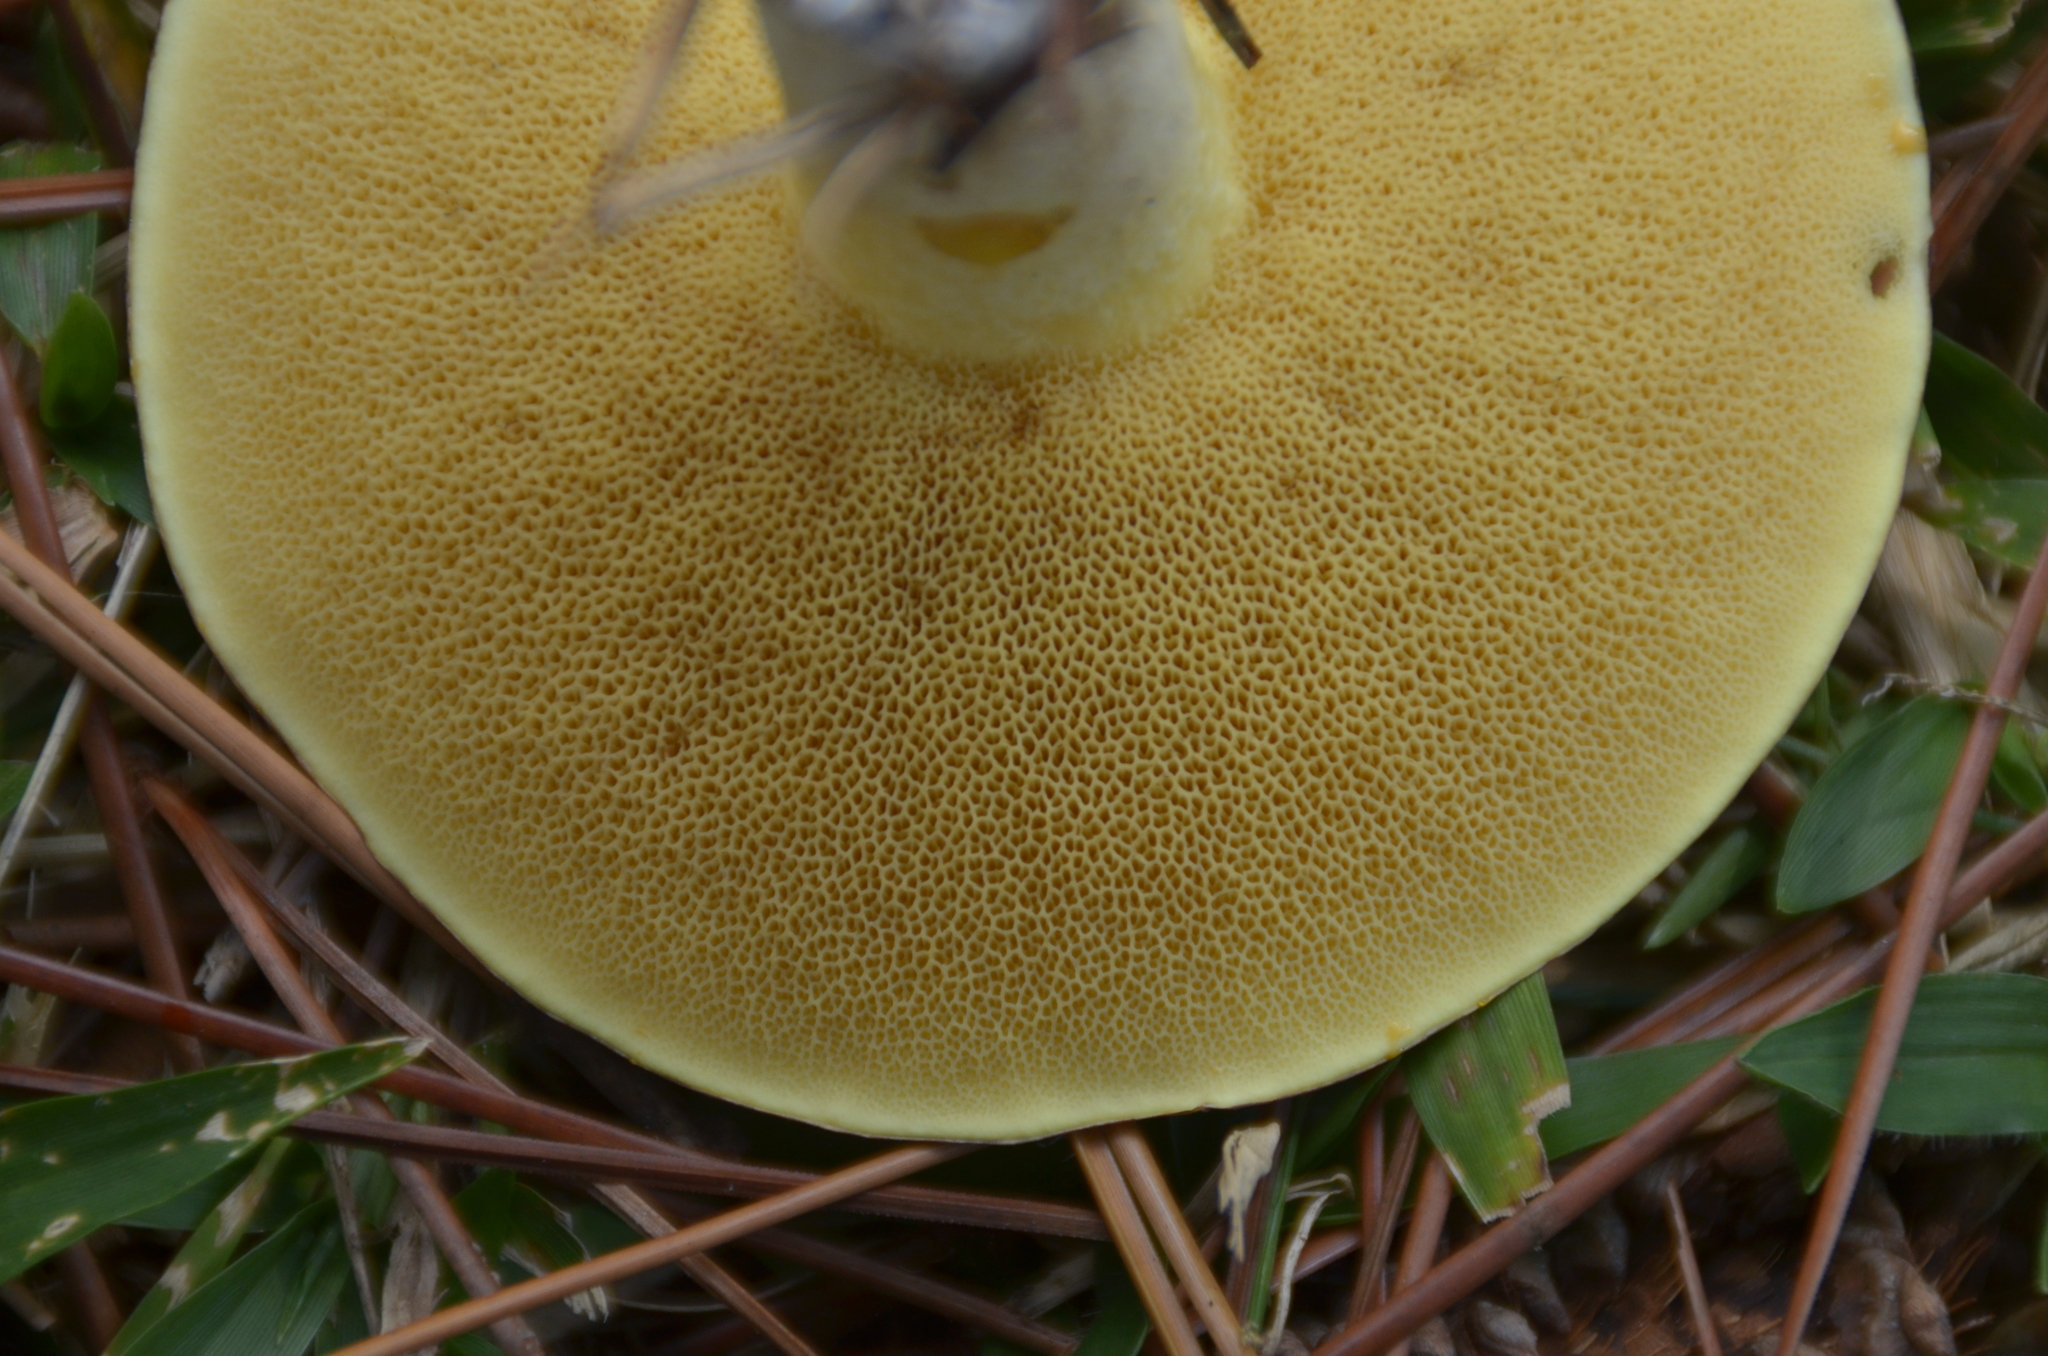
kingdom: Fungi
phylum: Basidiomycota
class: Agaricomycetes
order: Boletales
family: Suillaceae
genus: Suillus
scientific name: Suillus granulatus
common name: Weeping bolete
